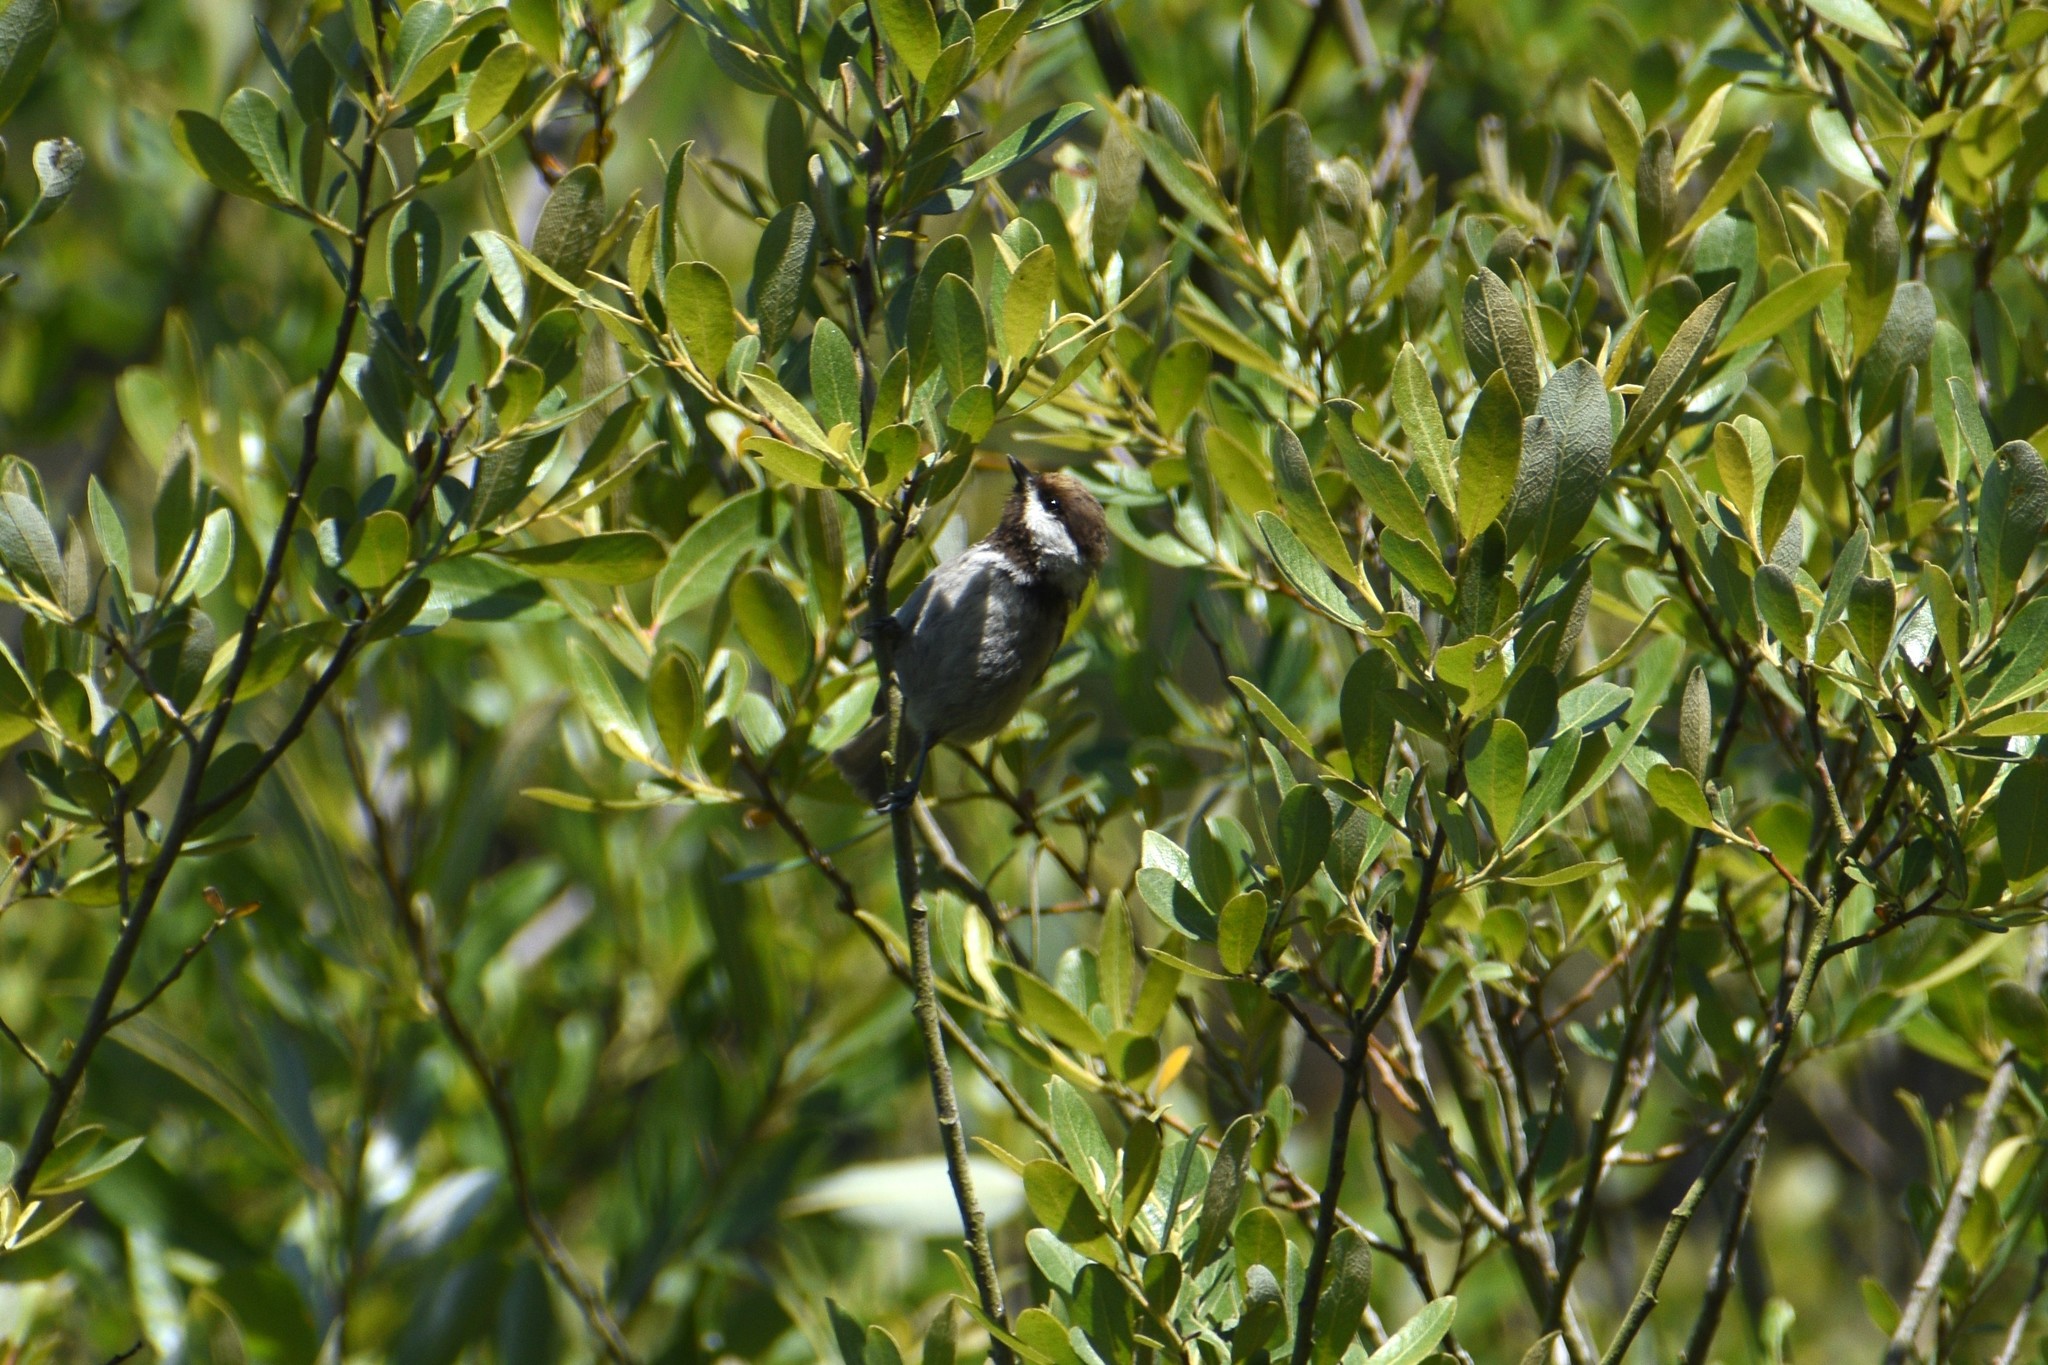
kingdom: Animalia
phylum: Chordata
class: Aves
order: Passeriformes
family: Paridae
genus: Poecile
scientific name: Poecile rufescens
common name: Chestnut-backed chickadee
